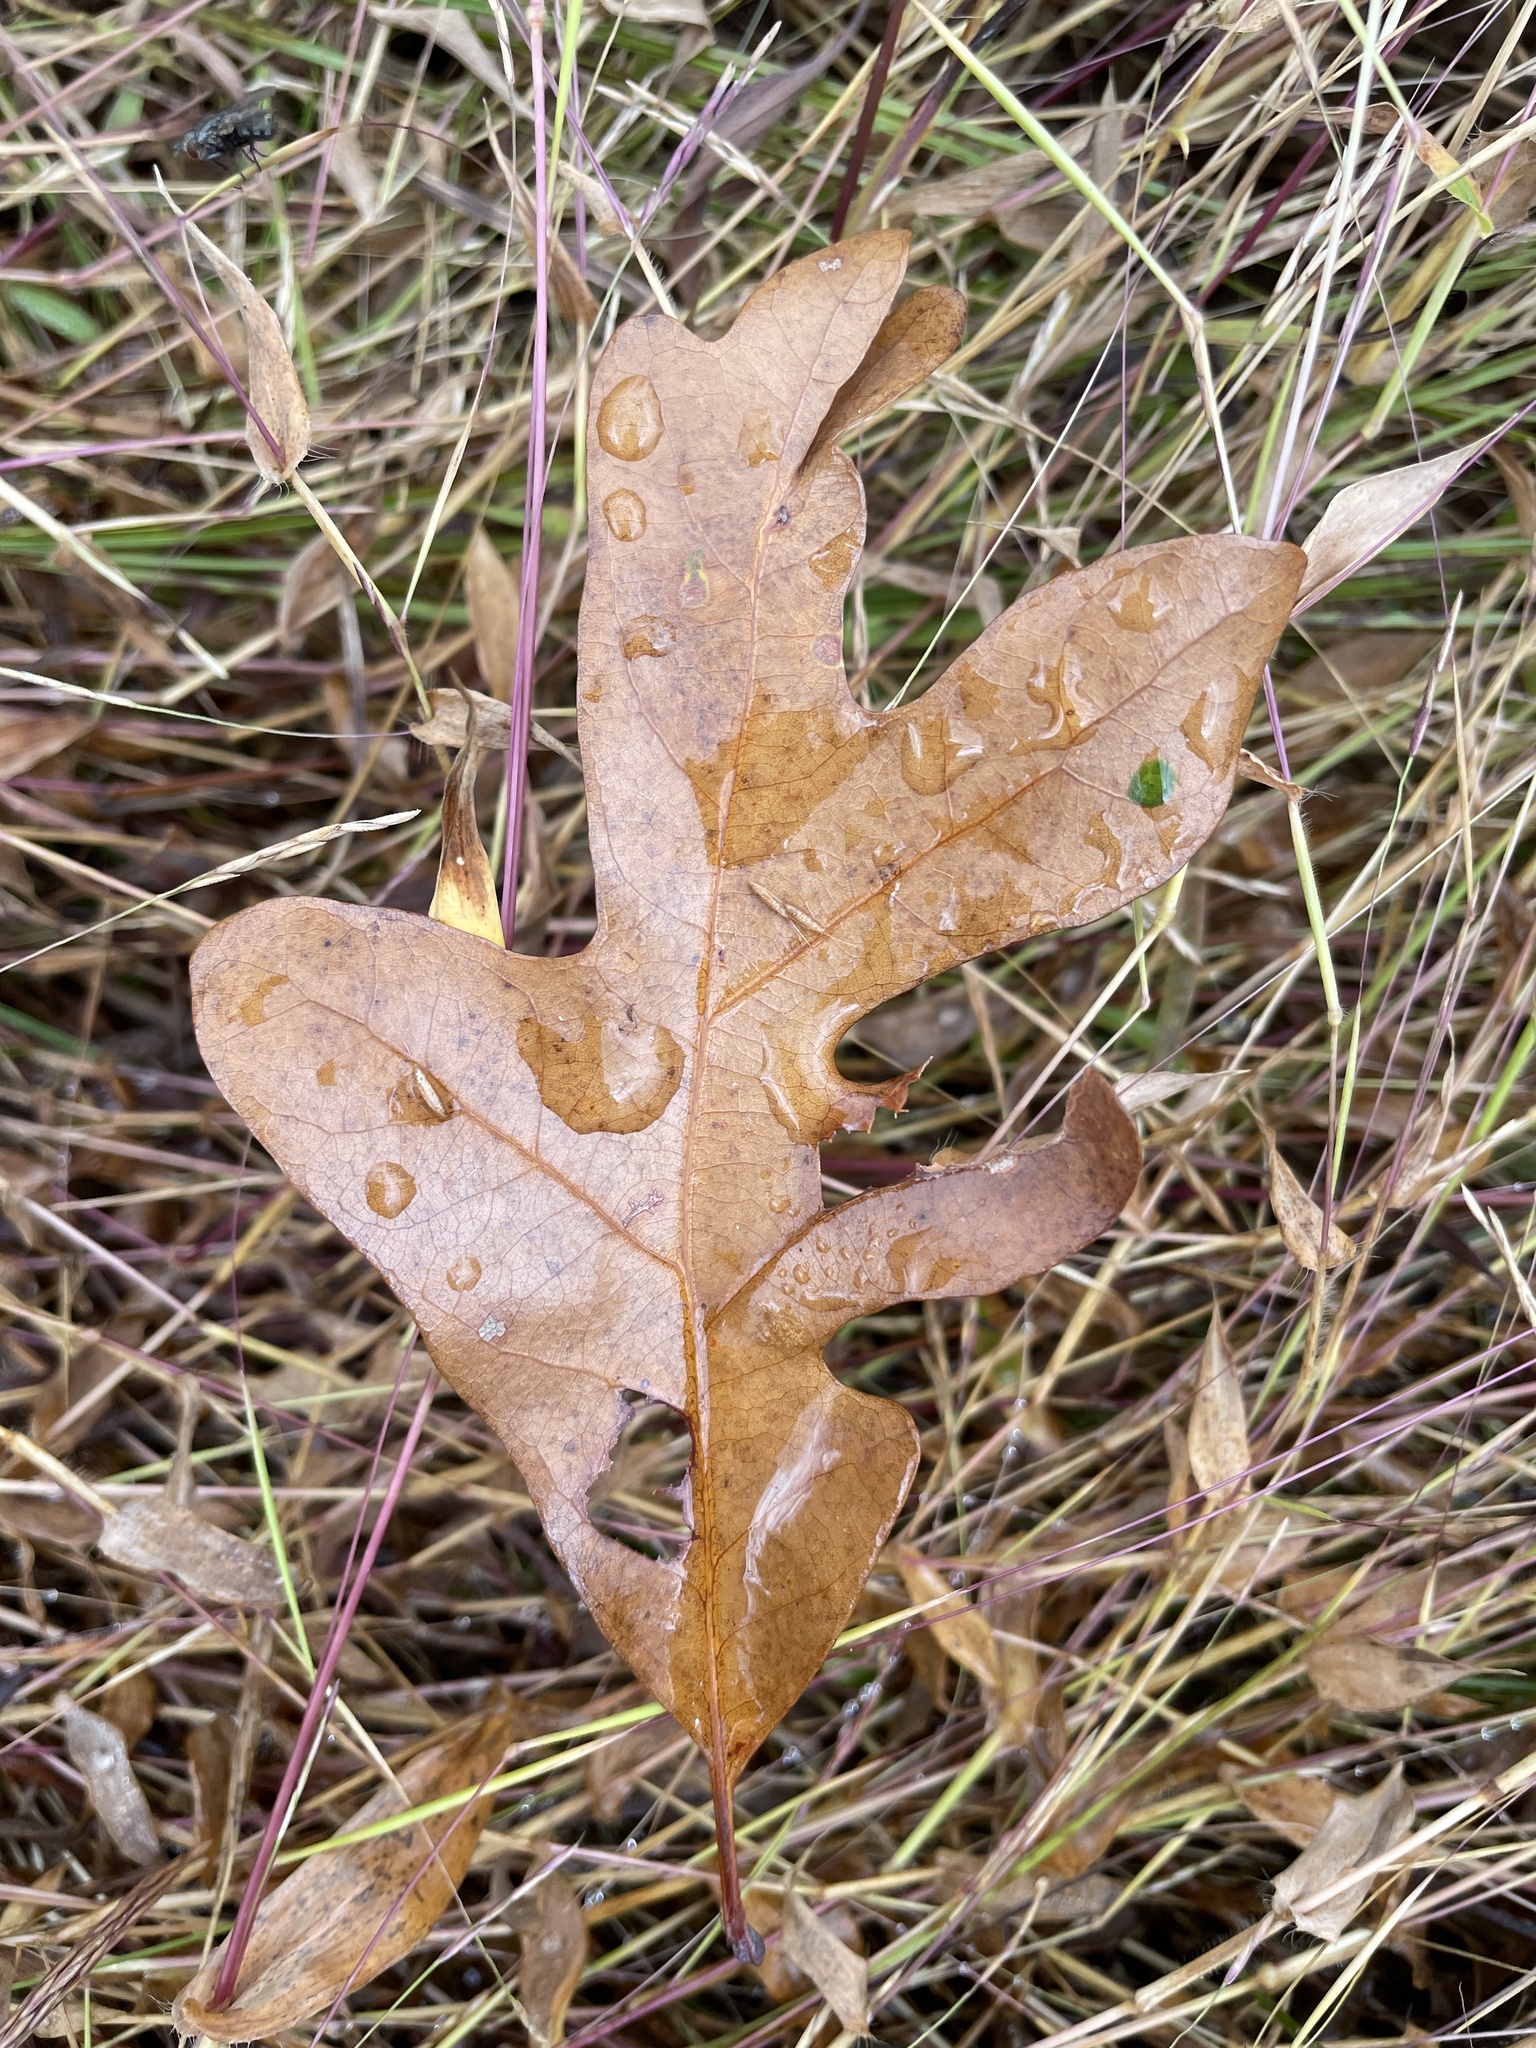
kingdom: Plantae
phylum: Tracheophyta
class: Magnoliopsida
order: Fagales
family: Fagaceae
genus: Quercus
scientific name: Quercus alba
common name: White oak
